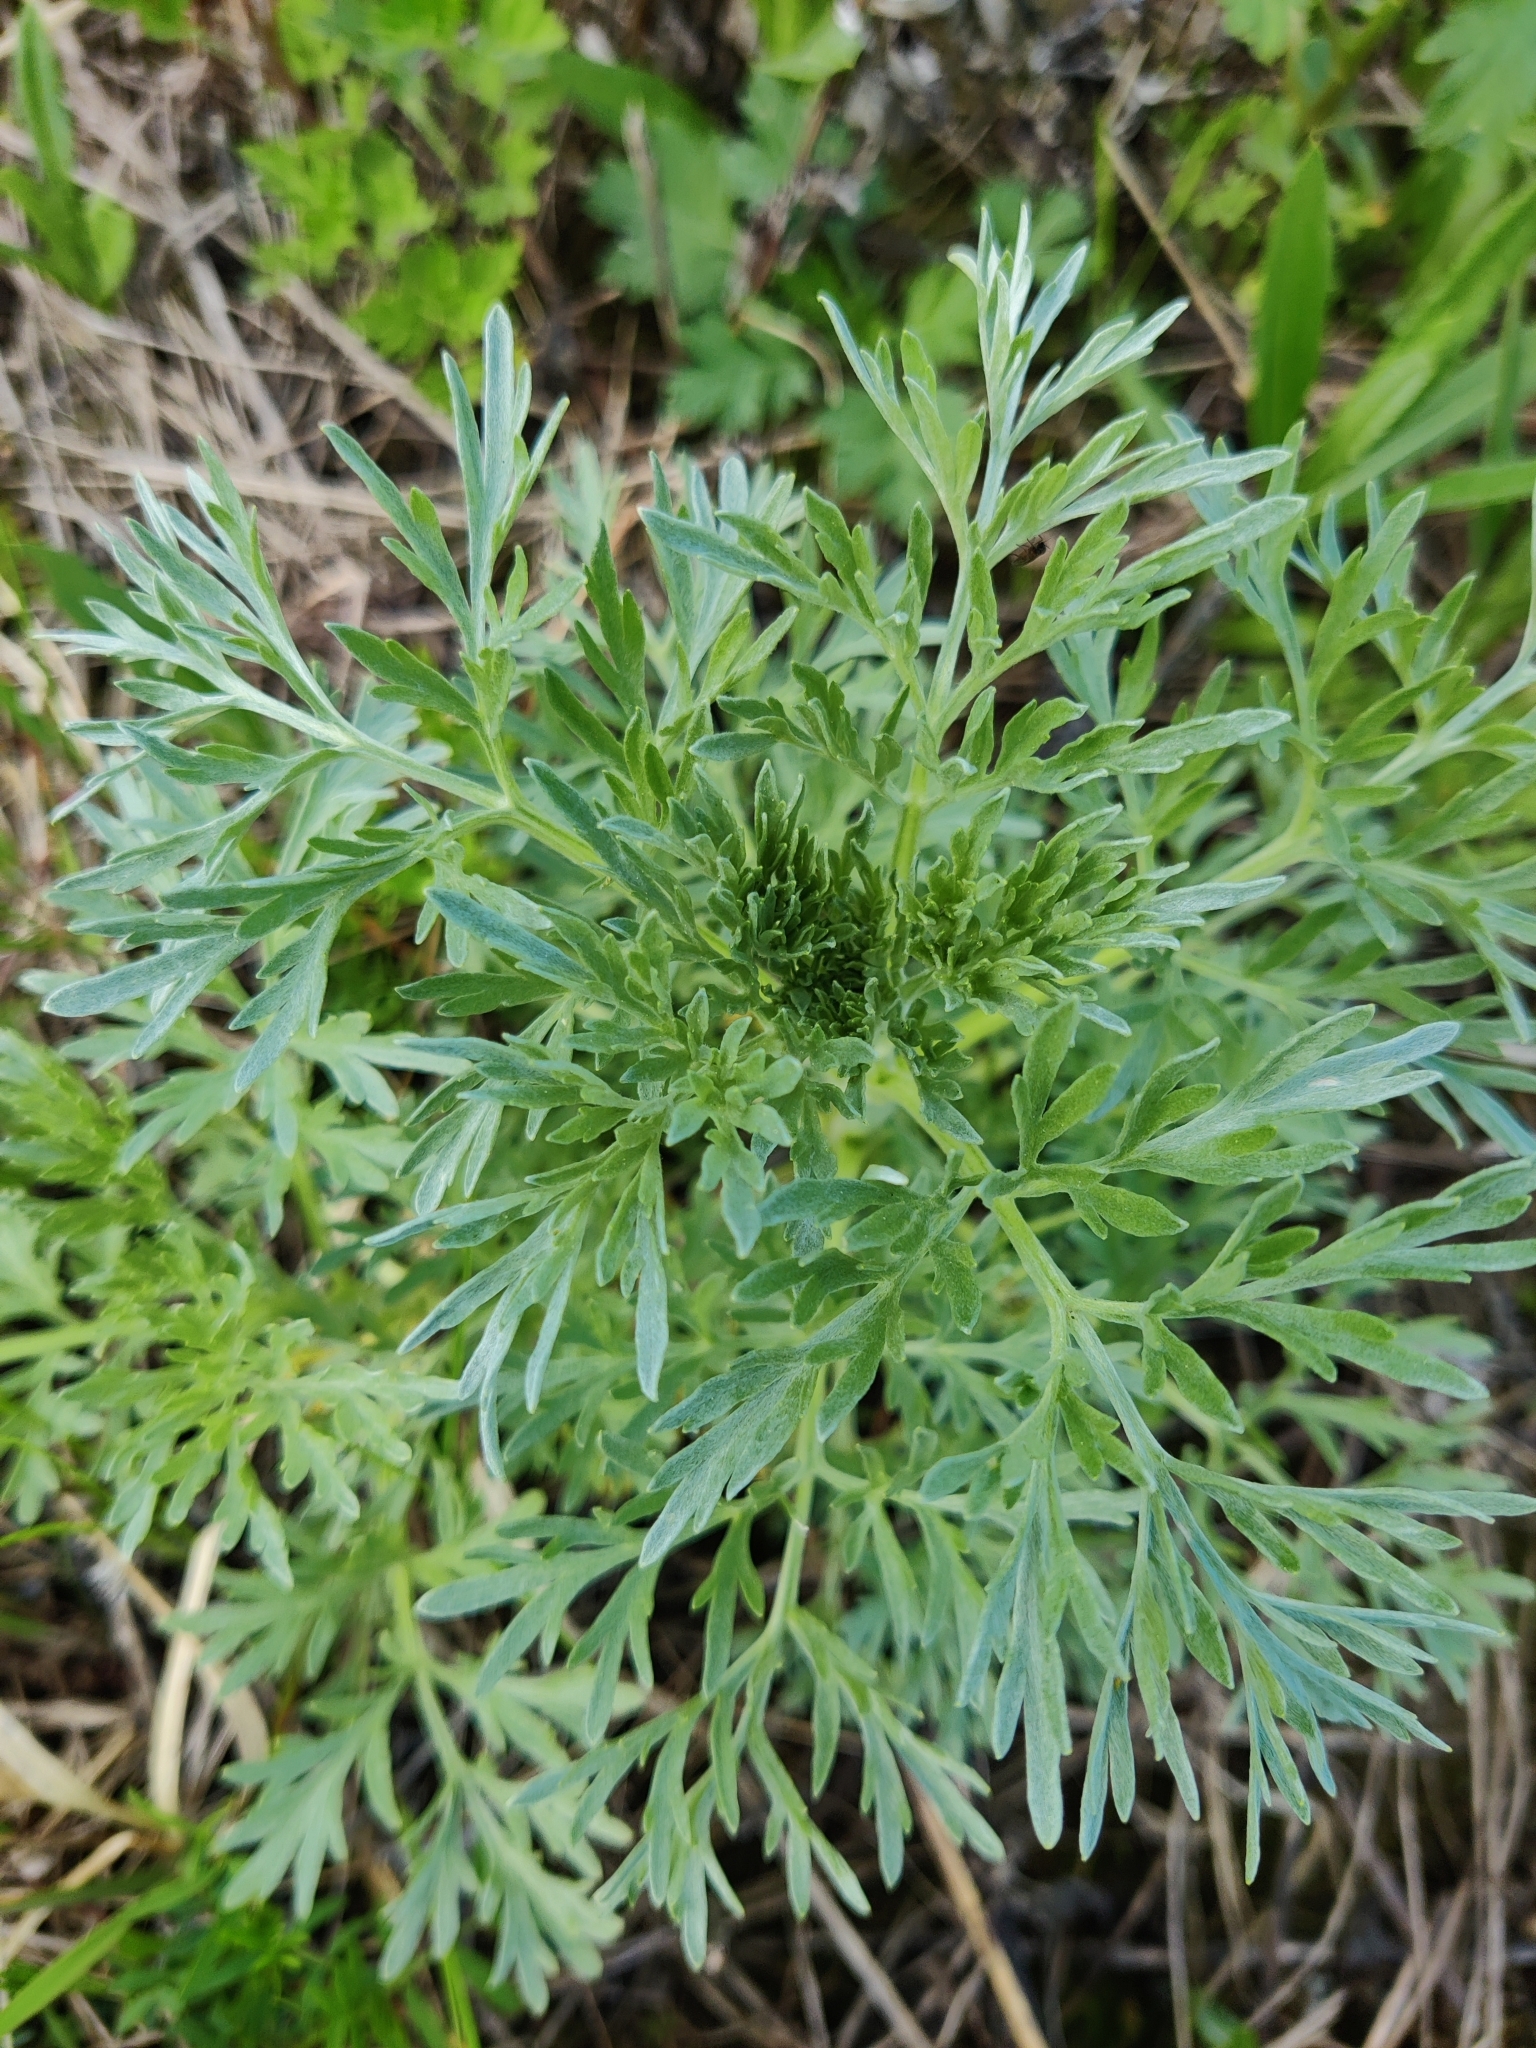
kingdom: Plantae
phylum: Tracheophyta
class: Magnoliopsida
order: Asterales
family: Asteraceae
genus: Artemisia
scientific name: Artemisia absinthium
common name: Wormwood
